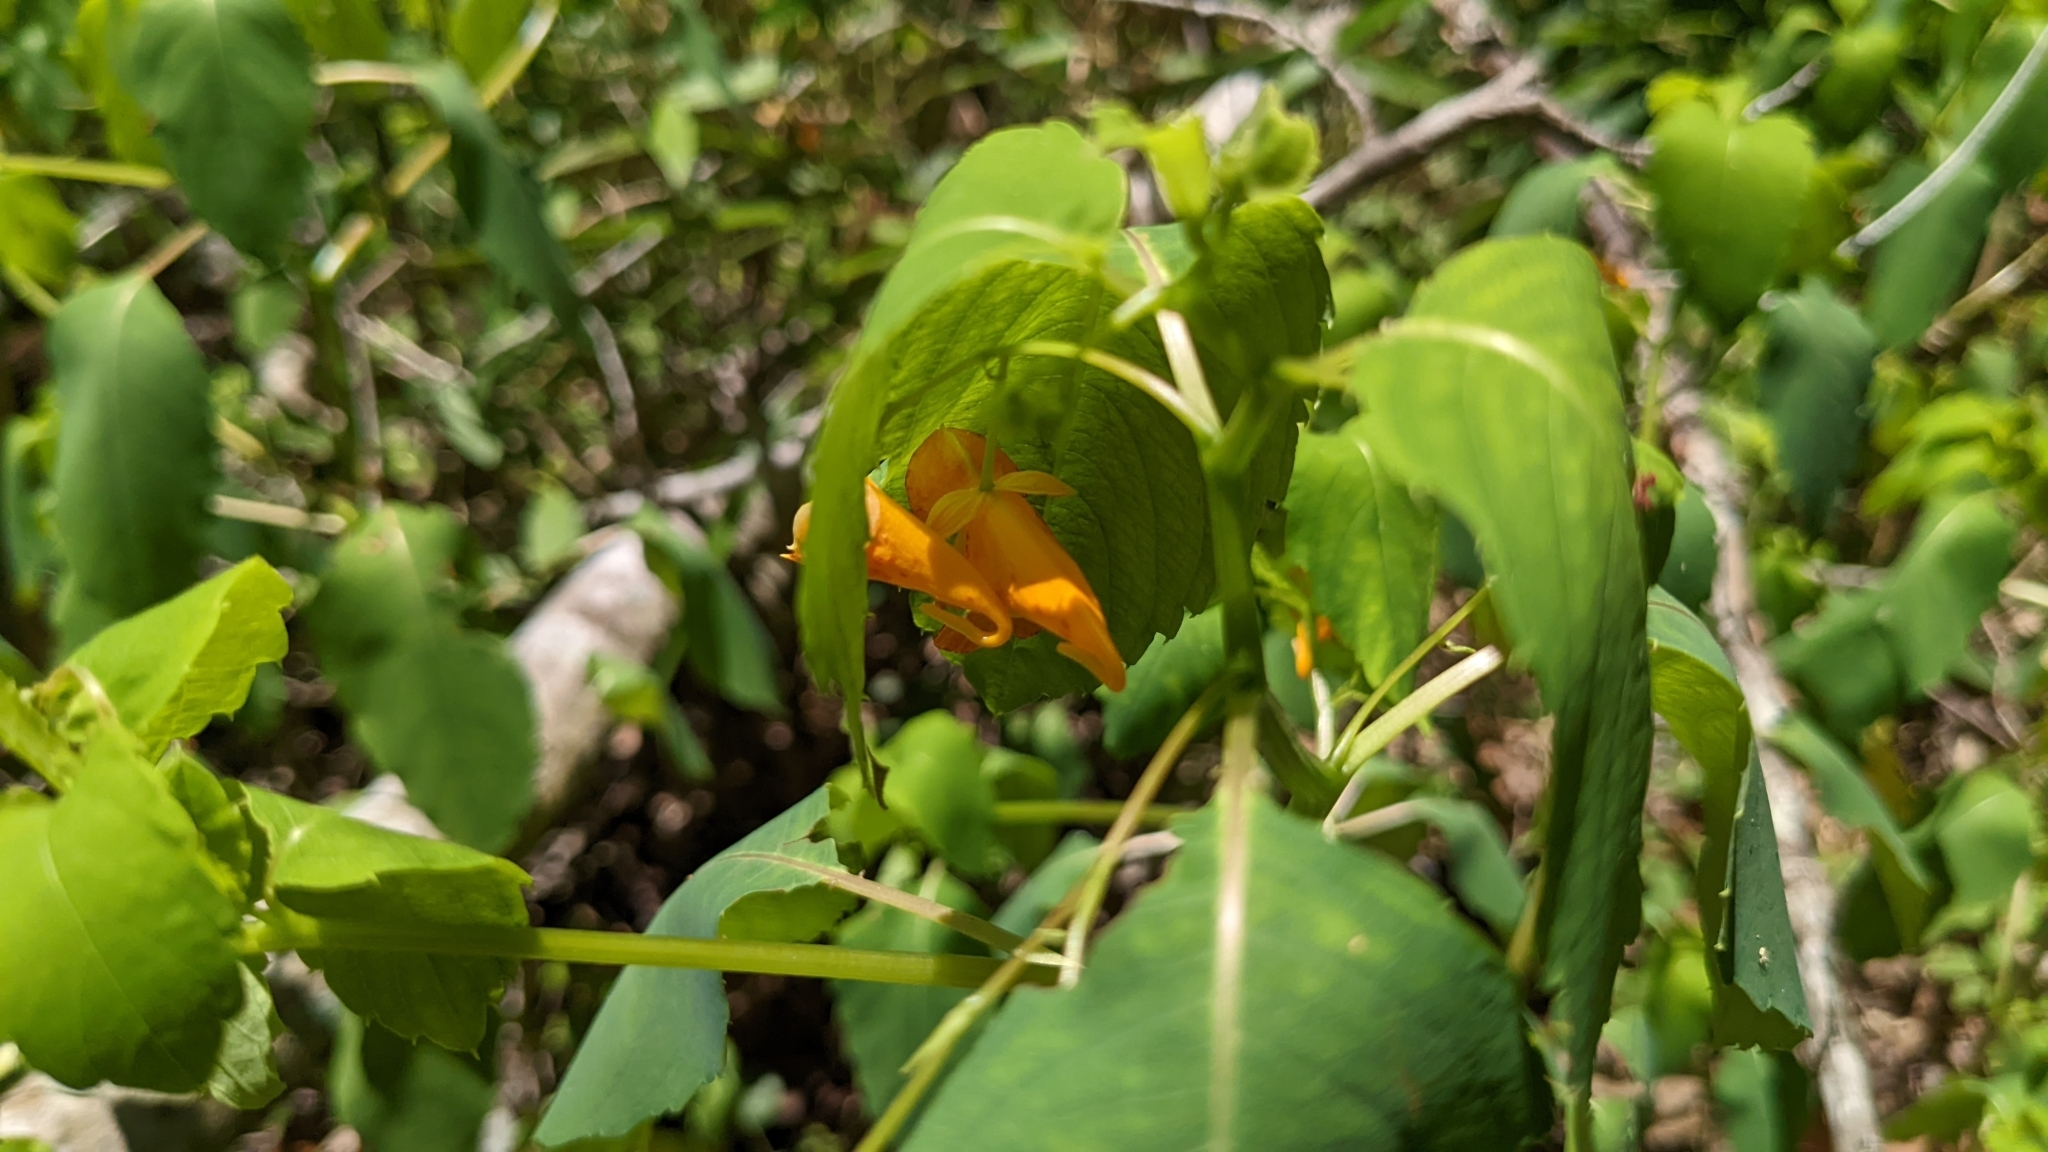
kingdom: Plantae
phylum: Tracheophyta
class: Magnoliopsida
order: Ericales
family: Balsaminaceae
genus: Impatiens
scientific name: Impatiens capensis
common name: Orange balsam
